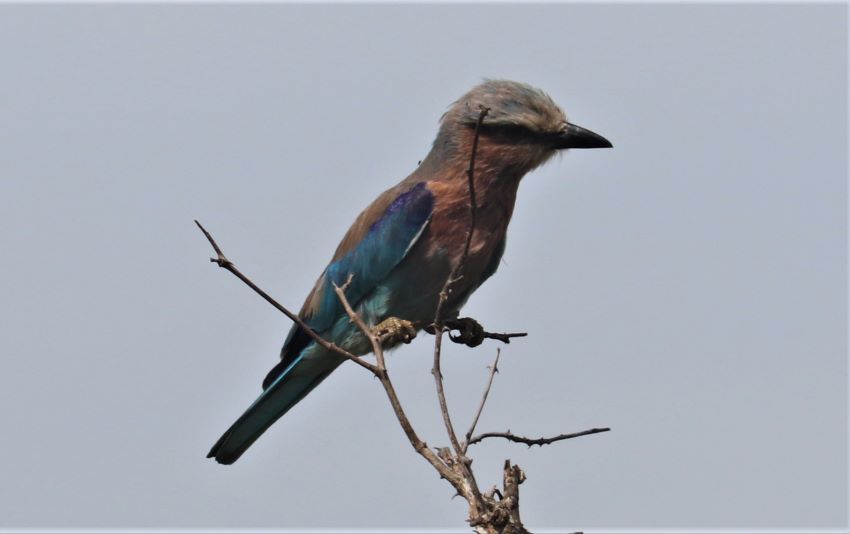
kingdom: Animalia
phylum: Chordata
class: Aves
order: Coraciiformes
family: Coraciidae
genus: Coracias
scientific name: Coracias caudatus
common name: Lilac-breasted roller
